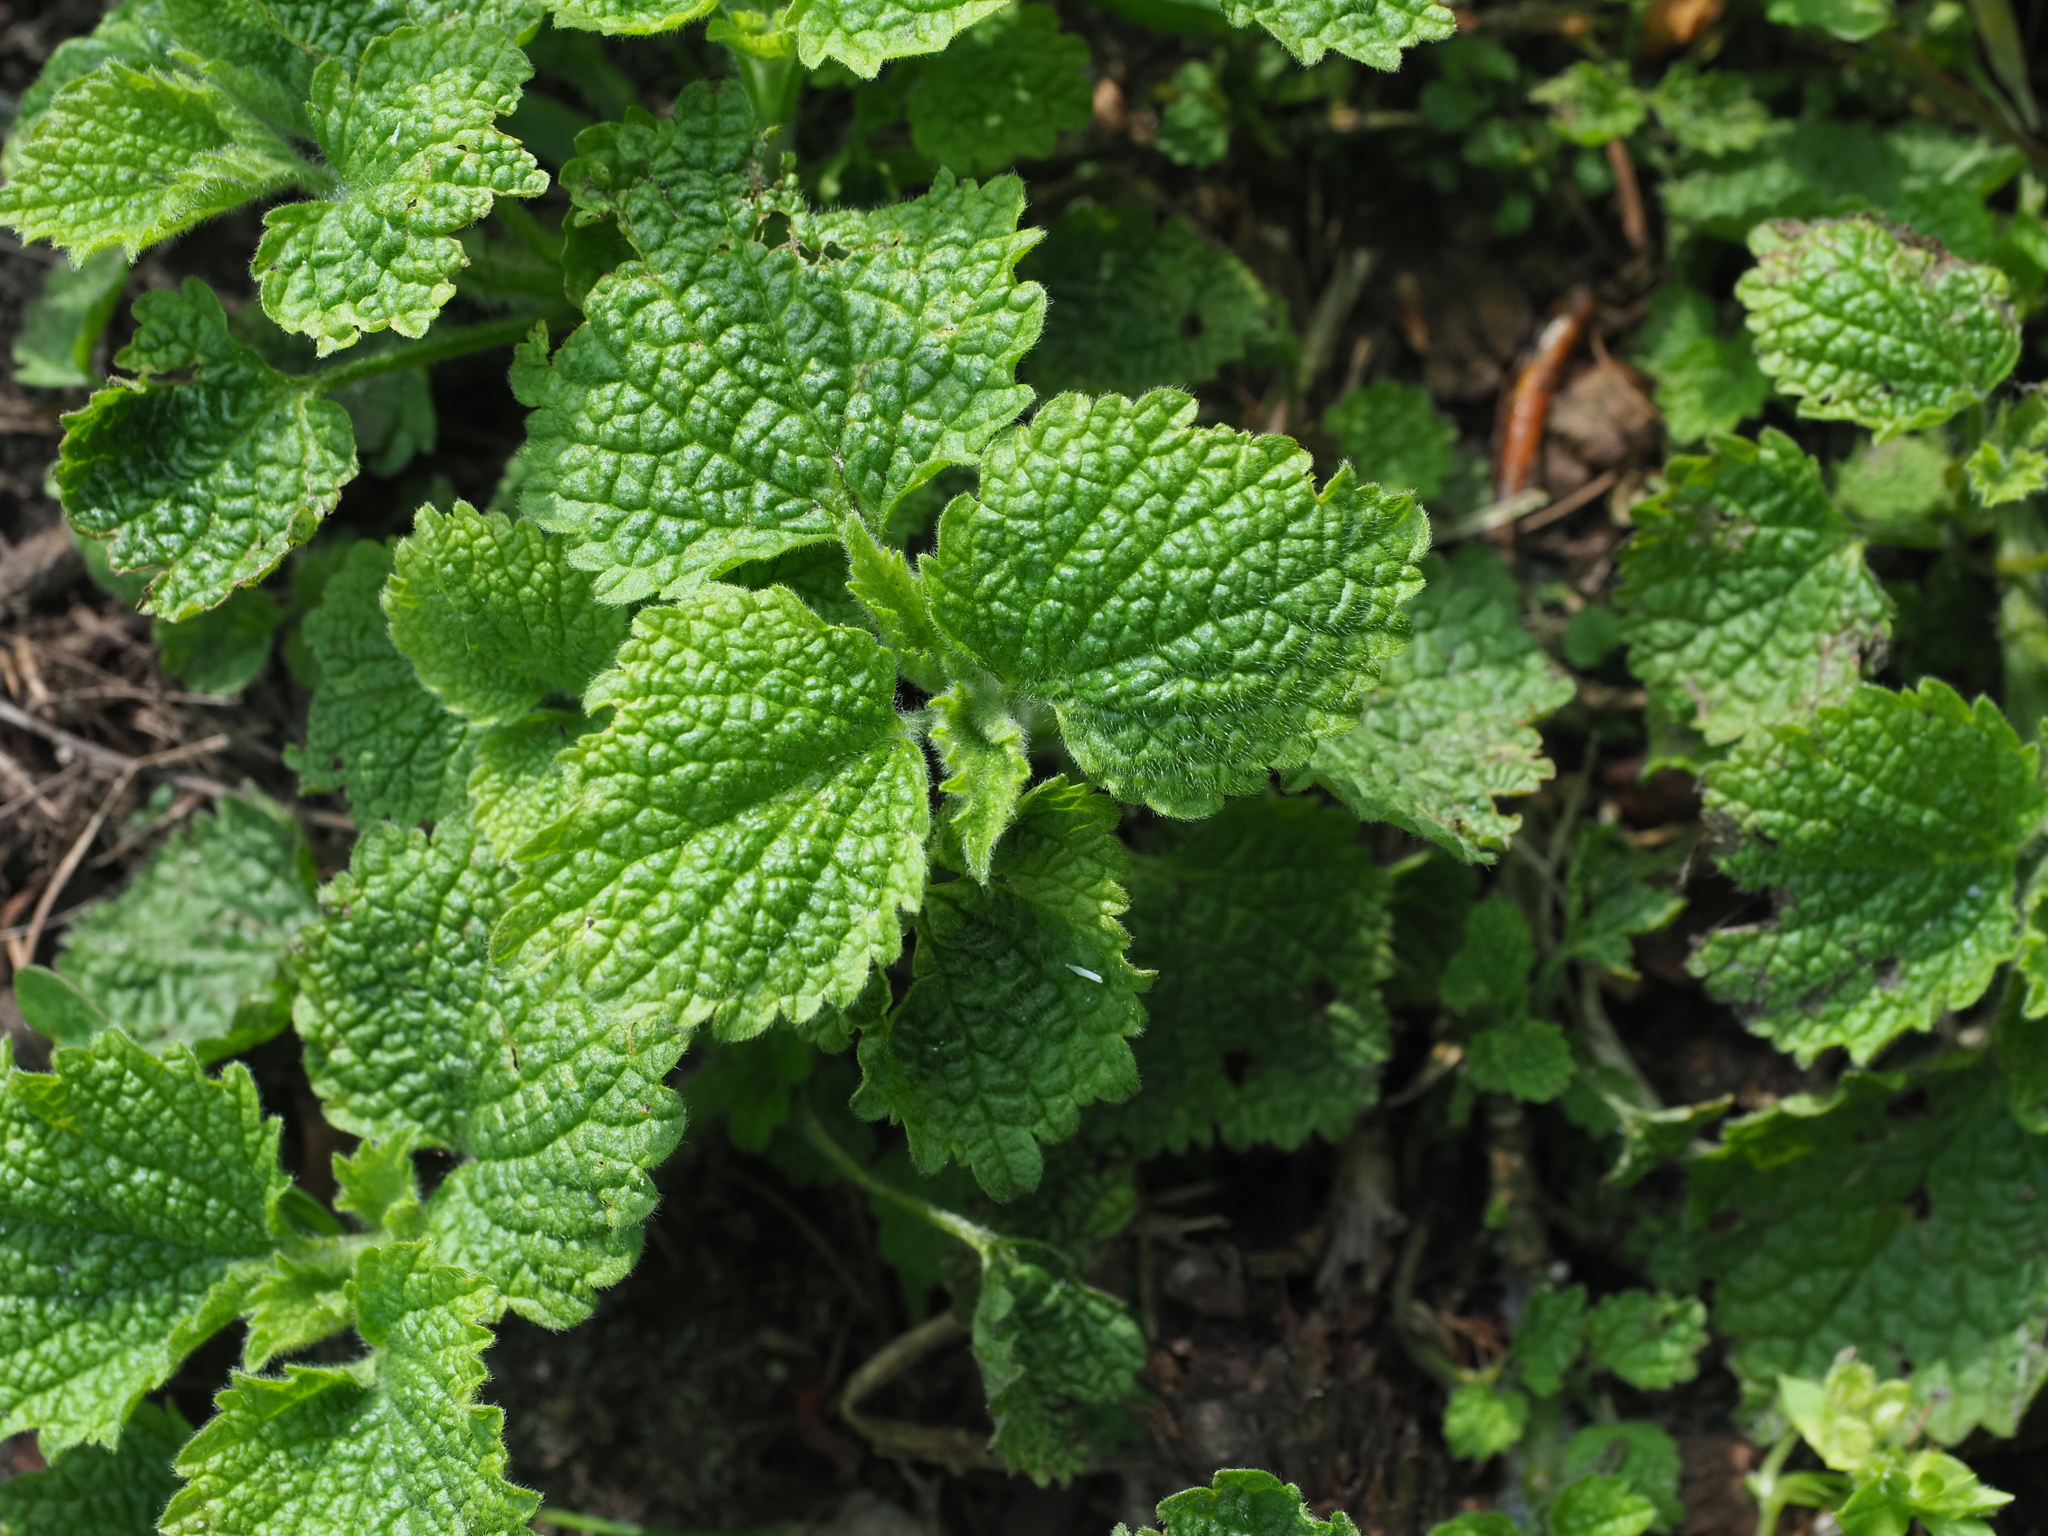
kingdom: Plantae
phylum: Tracheophyta
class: Magnoliopsida
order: Lamiales
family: Lamiaceae
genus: Ballota
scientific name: Ballota nigra
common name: Black horehound
